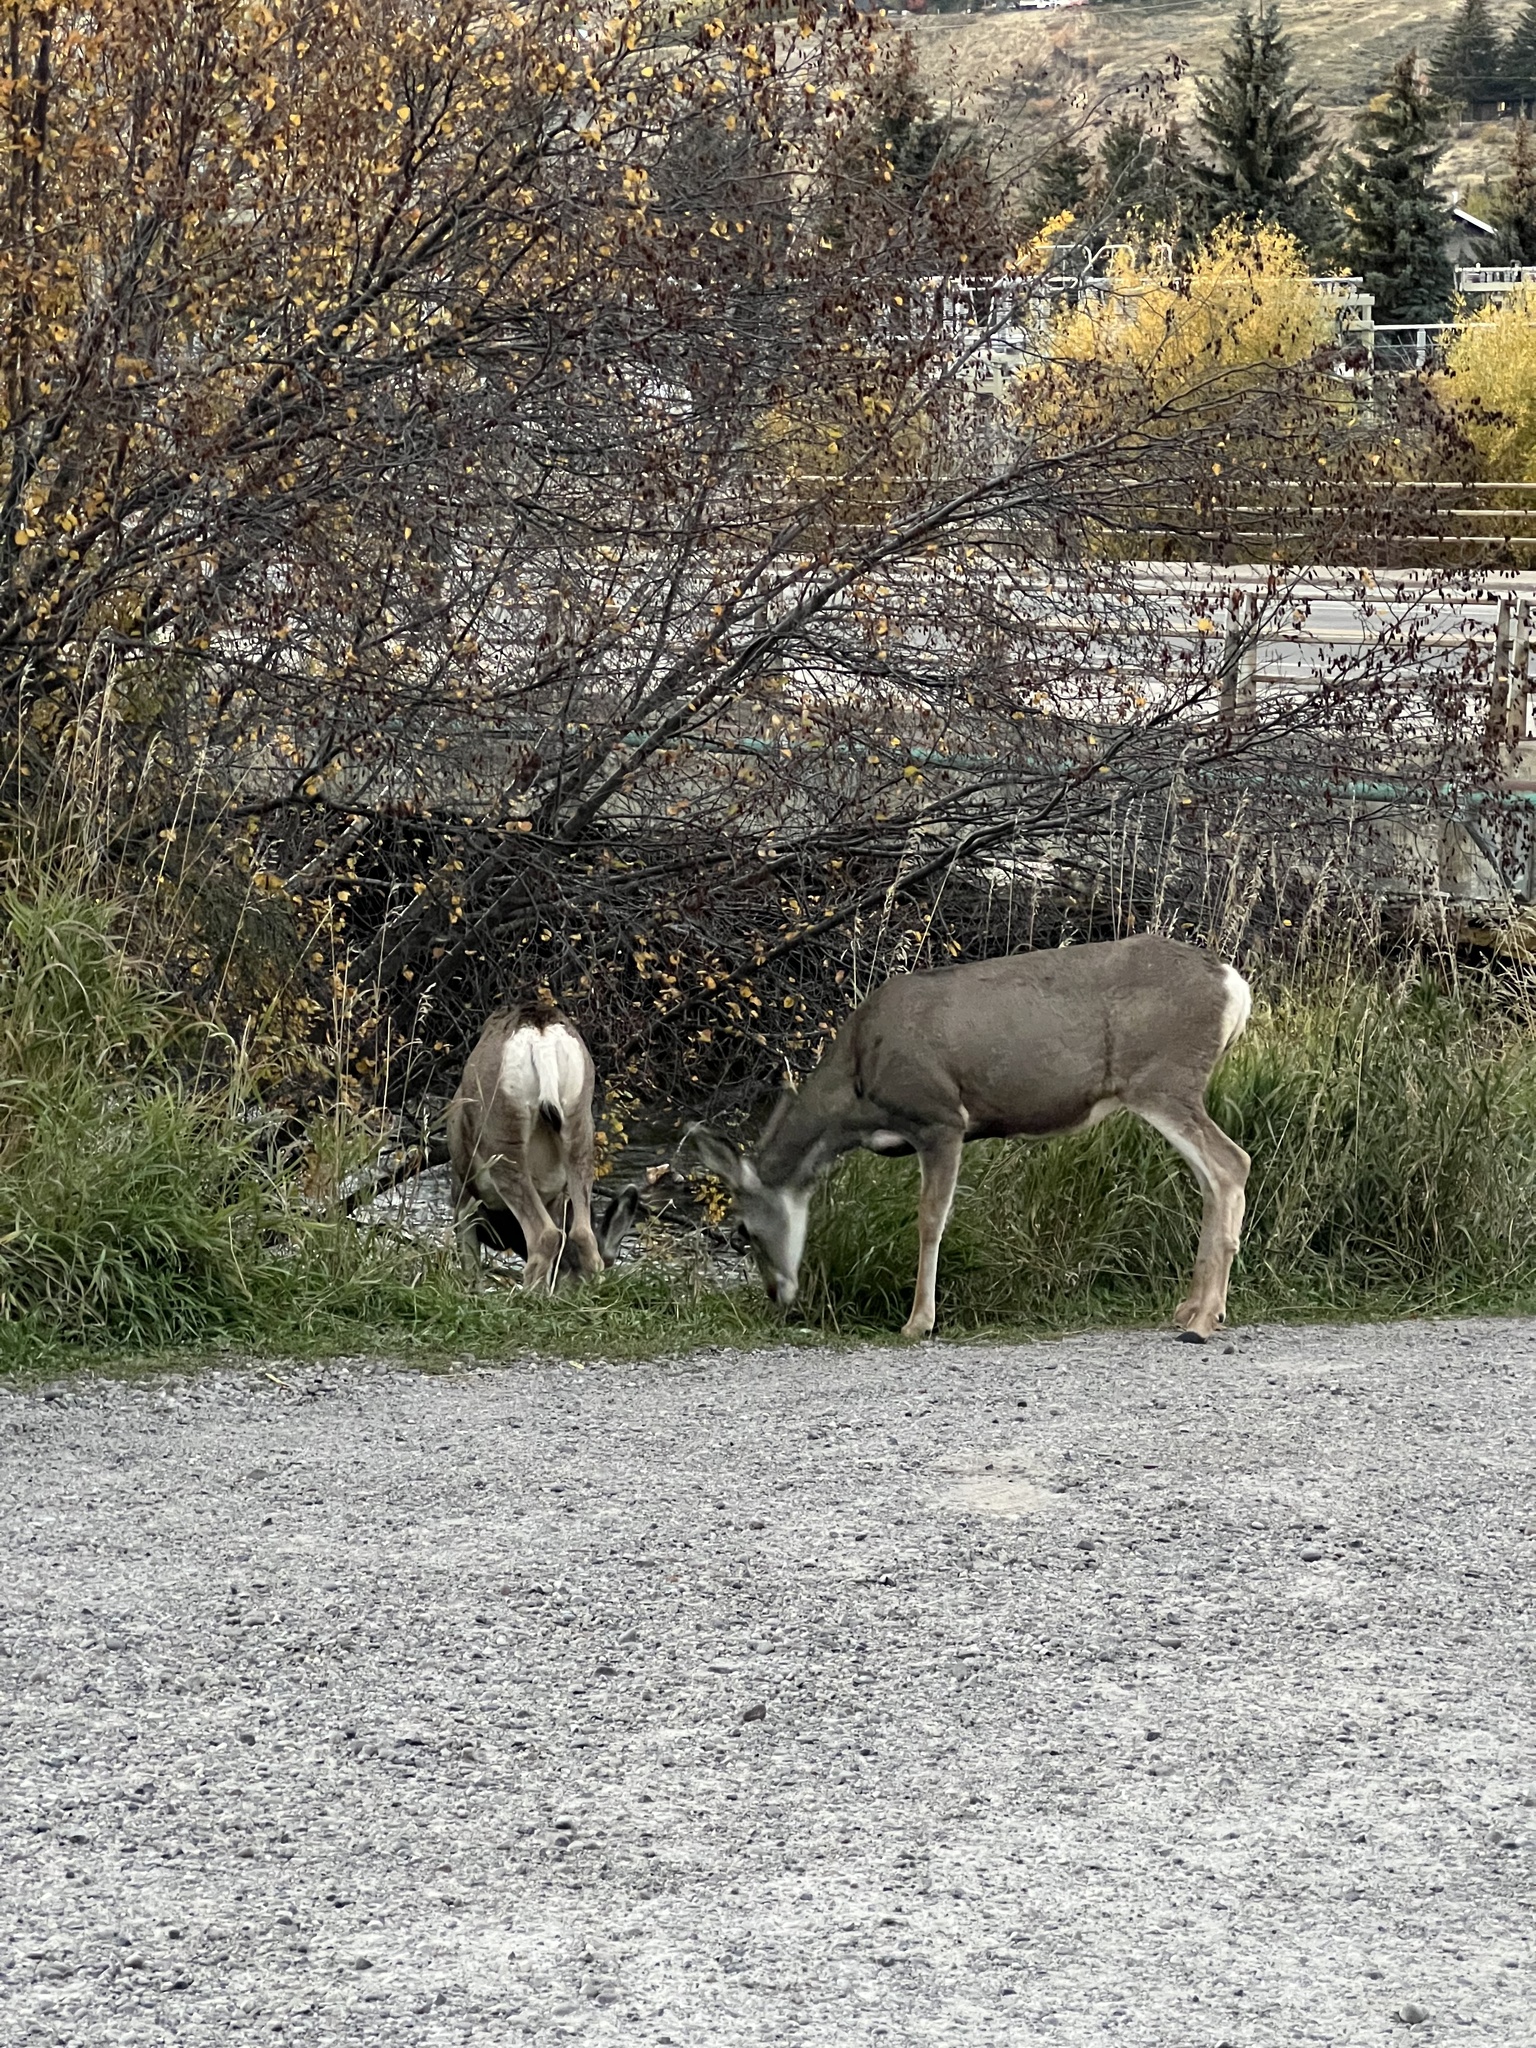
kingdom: Animalia
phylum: Chordata
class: Mammalia
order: Artiodactyla
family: Cervidae
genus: Odocoileus
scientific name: Odocoileus hemionus
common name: Mule deer
